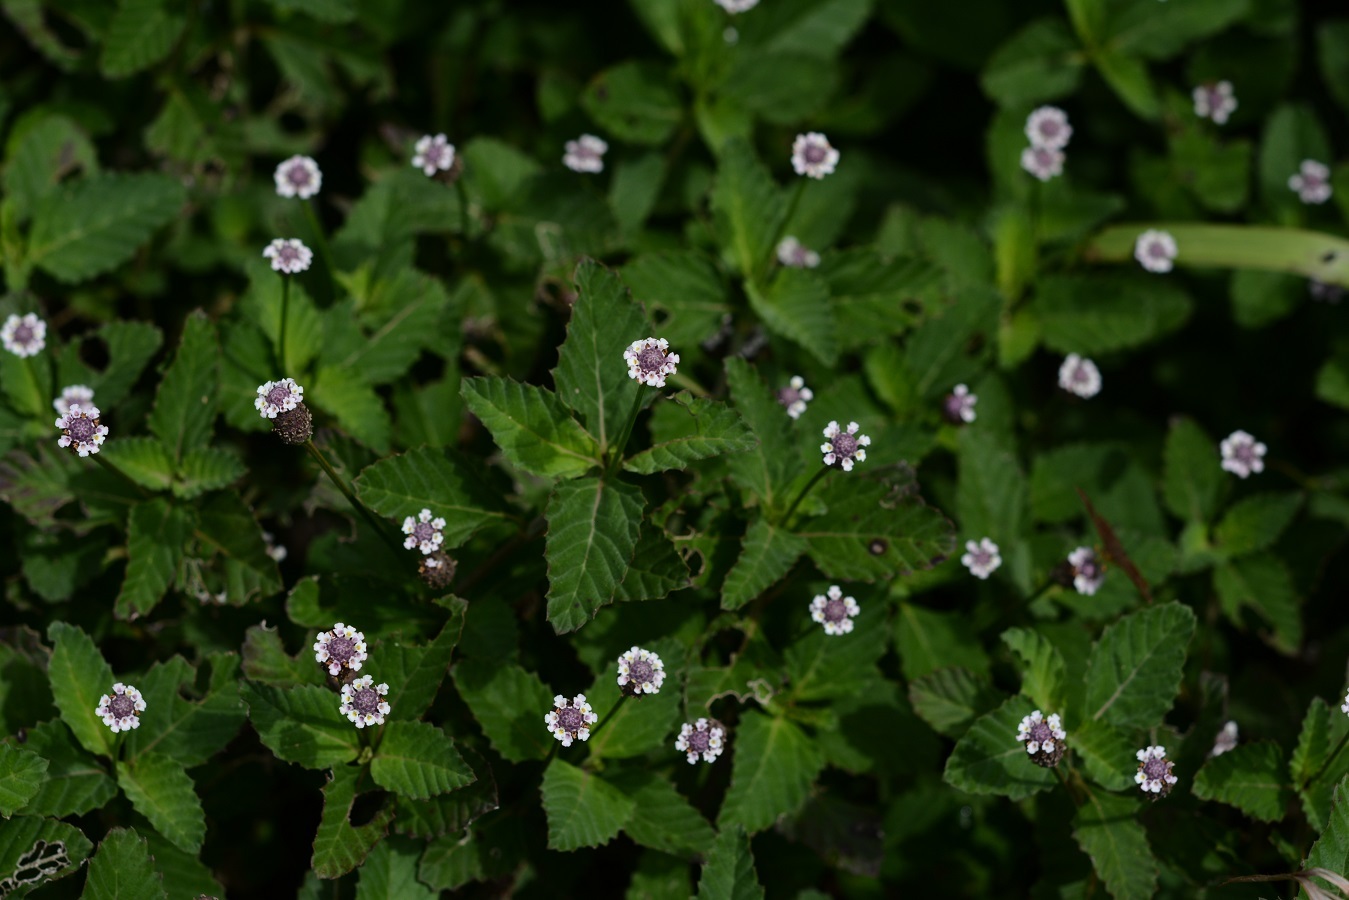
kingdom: Plantae
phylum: Tracheophyta
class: Magnoliopsida
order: Lamiales
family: Verbenaceae
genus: Phyla
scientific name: Phyla lanceolata
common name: Northern fogfruit
